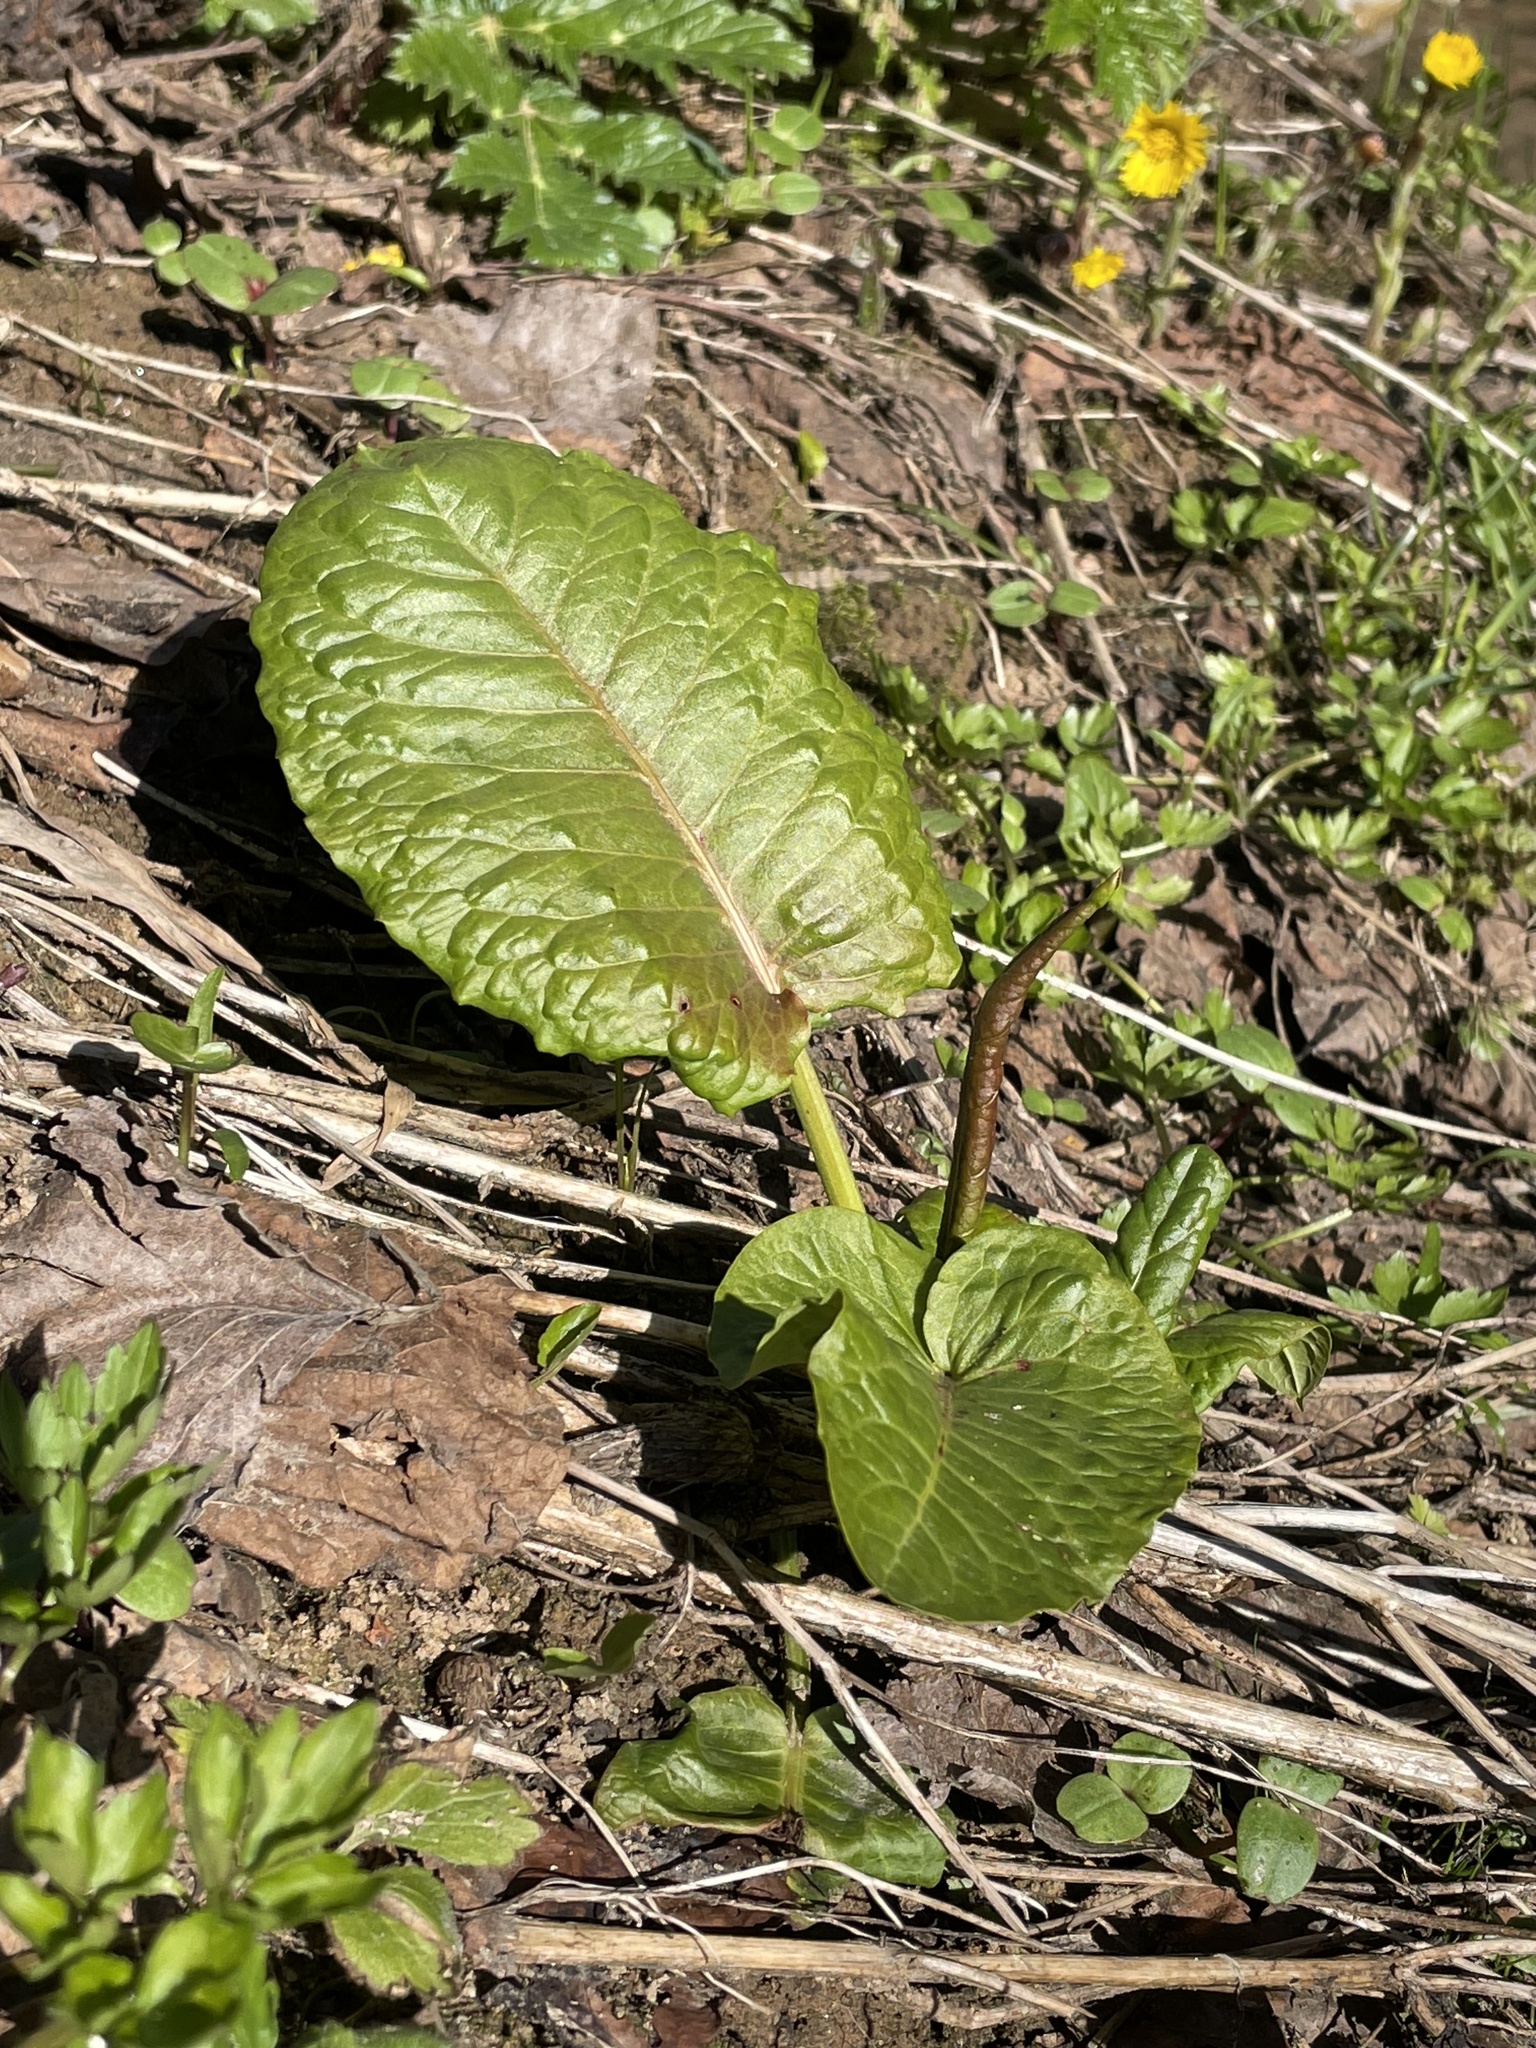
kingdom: Plantae
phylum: Tracheophyta
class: Magnoliopsida
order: Caryophyllales
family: Polygonaceae
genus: Rumex
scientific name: Rumex obtusifolius
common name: Bitter dock
